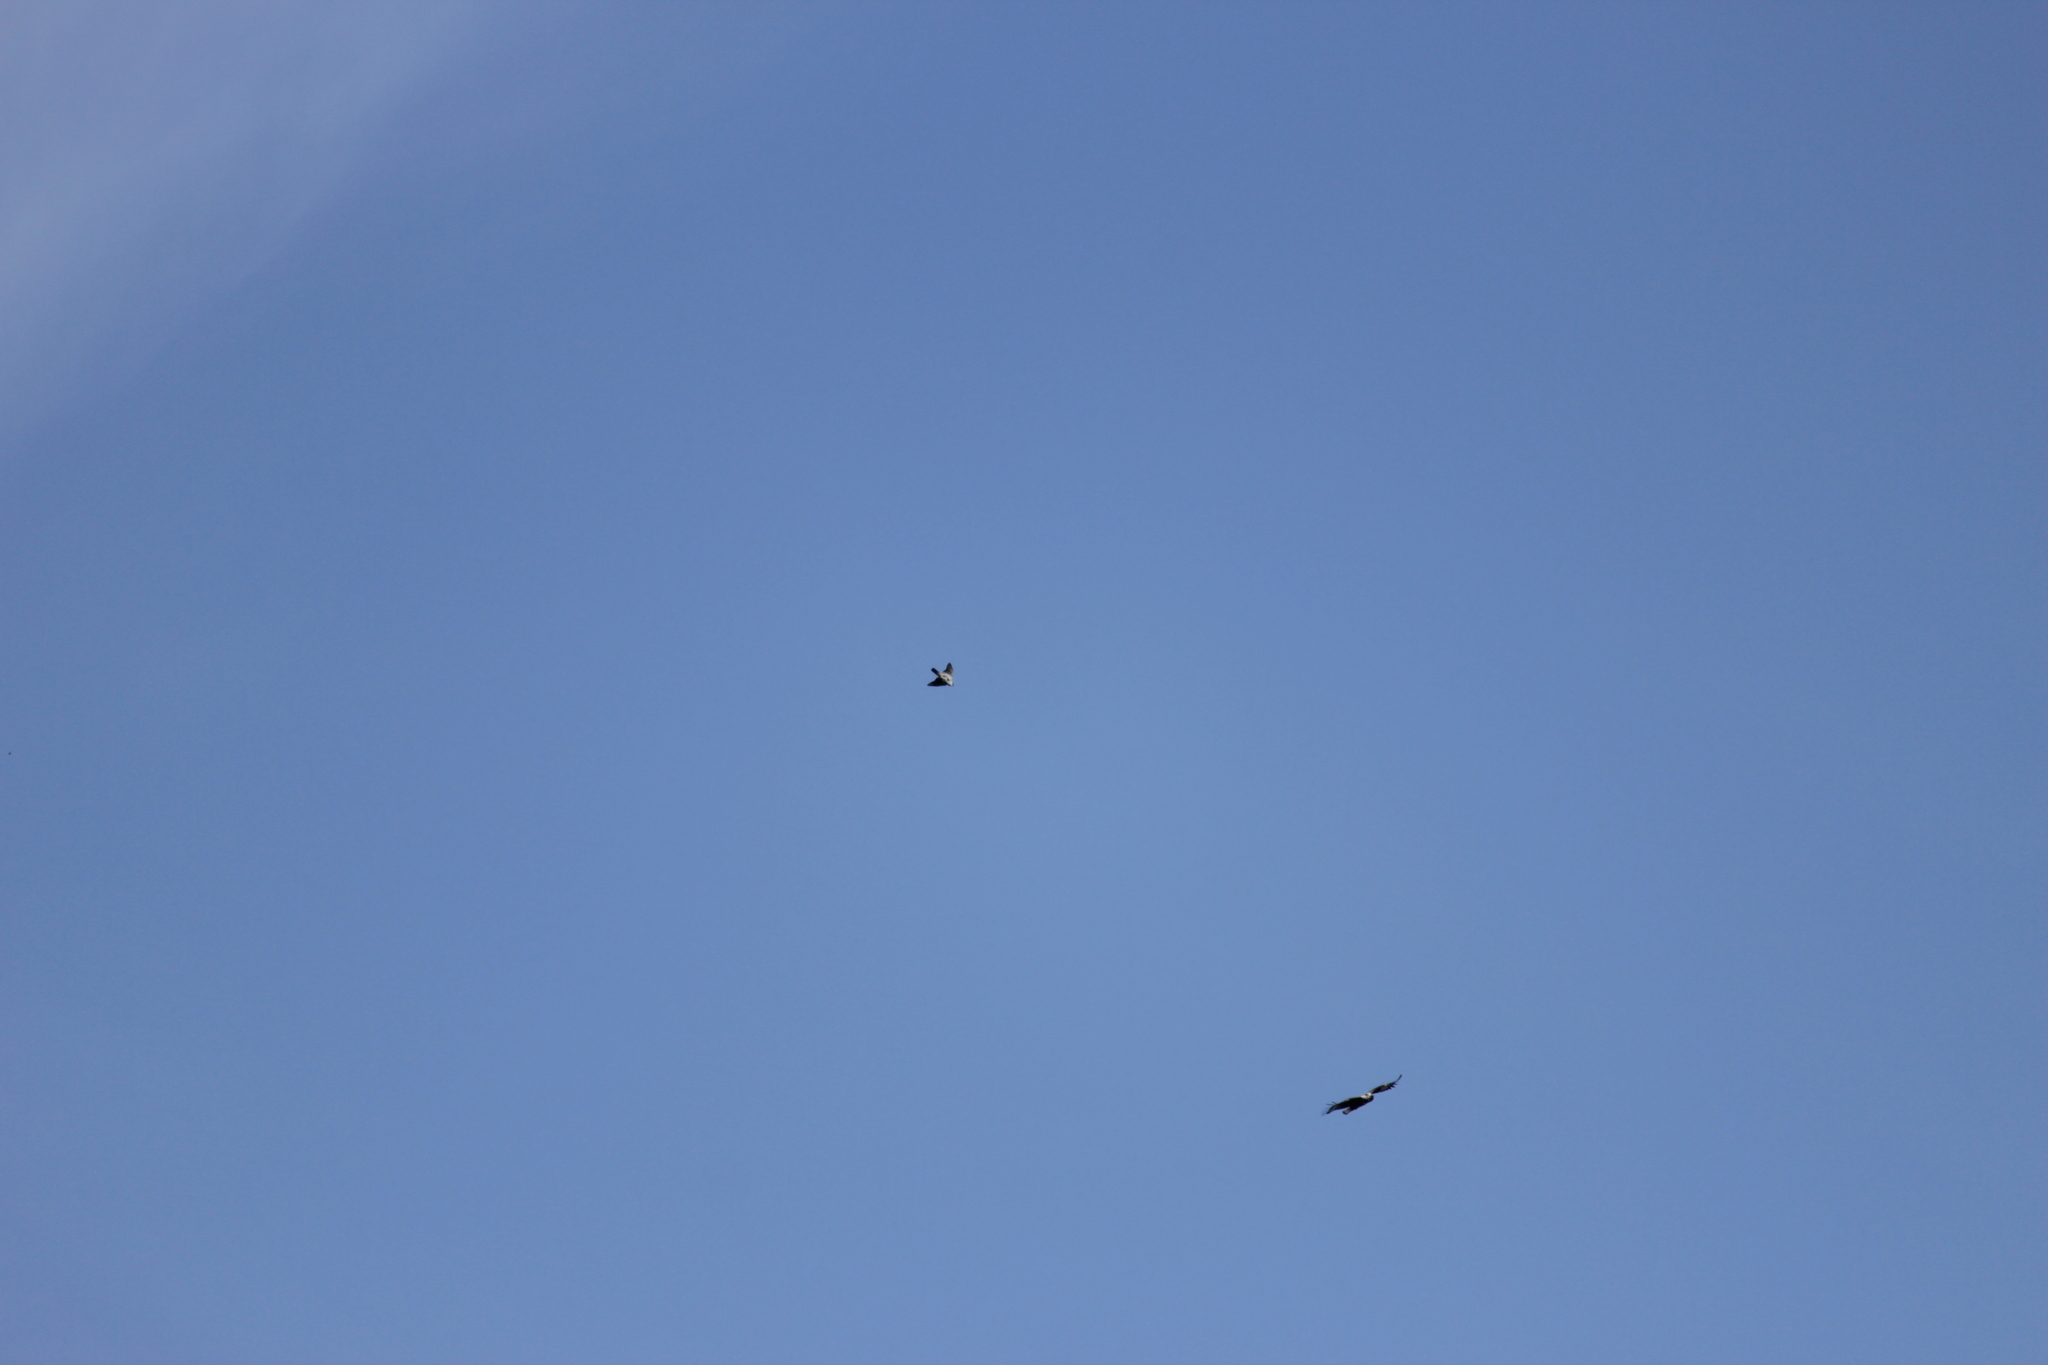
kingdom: Animalia
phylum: Chordata
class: Aves
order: Accipitriformes
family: Accipitridae
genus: Accipiter
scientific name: Accipiter melanoleucus
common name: Black sparrowhawk
